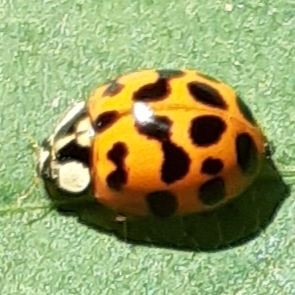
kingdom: Animalia
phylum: Arthropoda
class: Insecta
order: Coleoptera
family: Coccinellidae
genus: Harmonia
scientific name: Harmonia axyridis
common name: Harlequin ladybird
